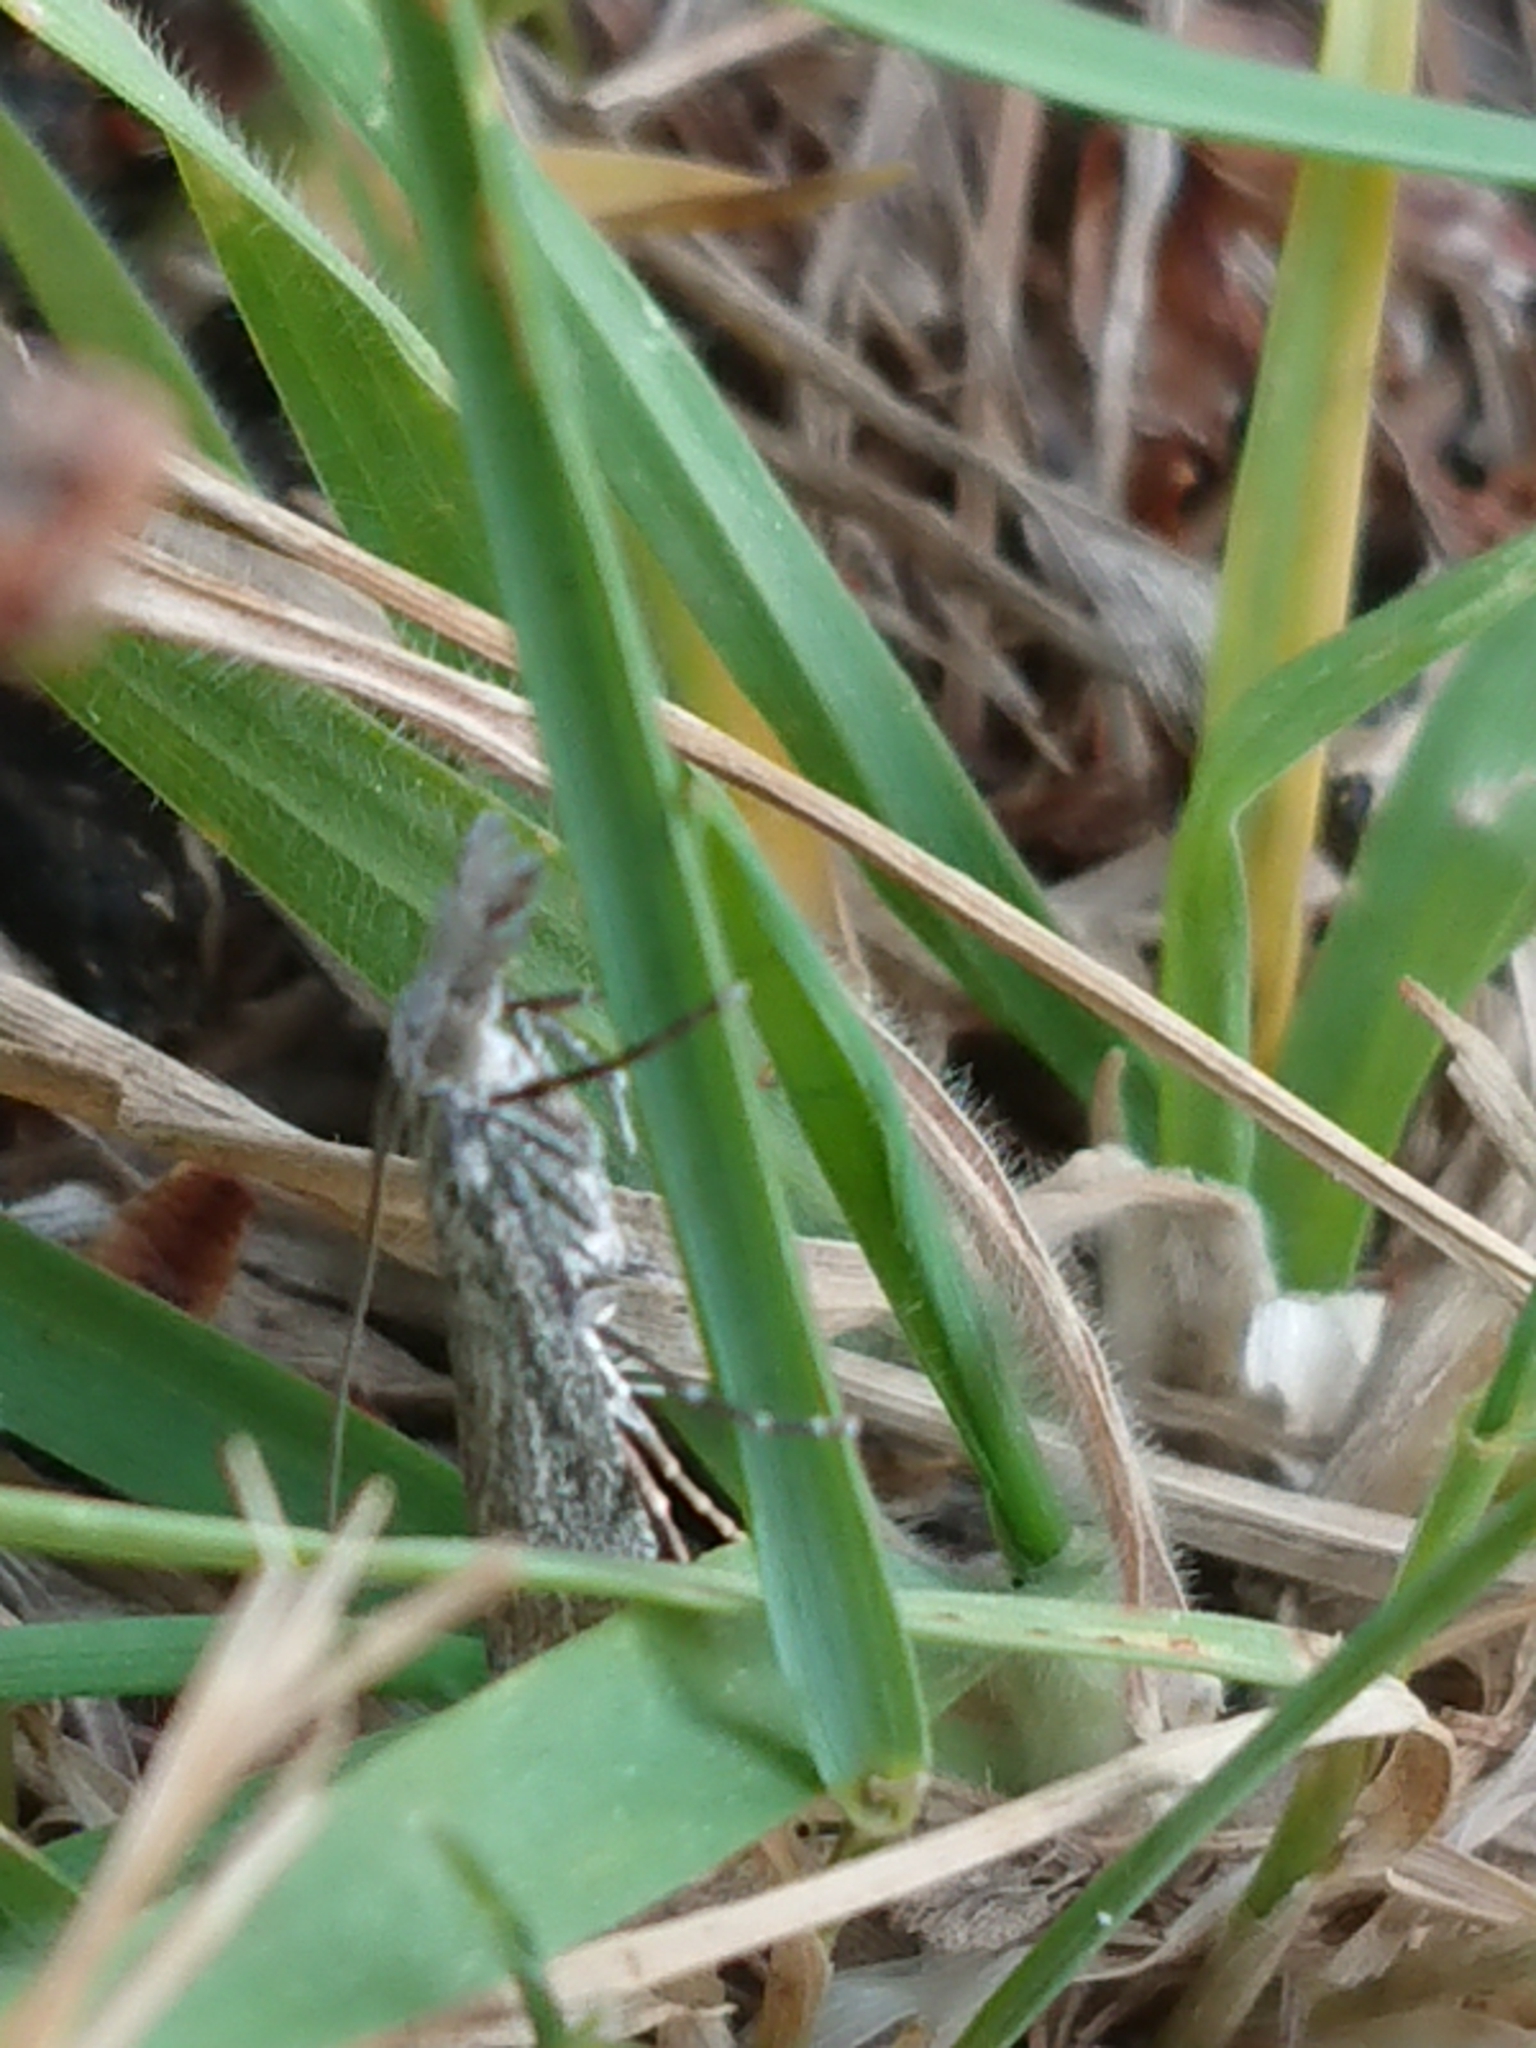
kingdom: Animalia
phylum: Arthropoda
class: Insecta
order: Lepidoptera
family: Crambidae
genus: Orocrambus
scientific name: Orocrambus cyclopicus
